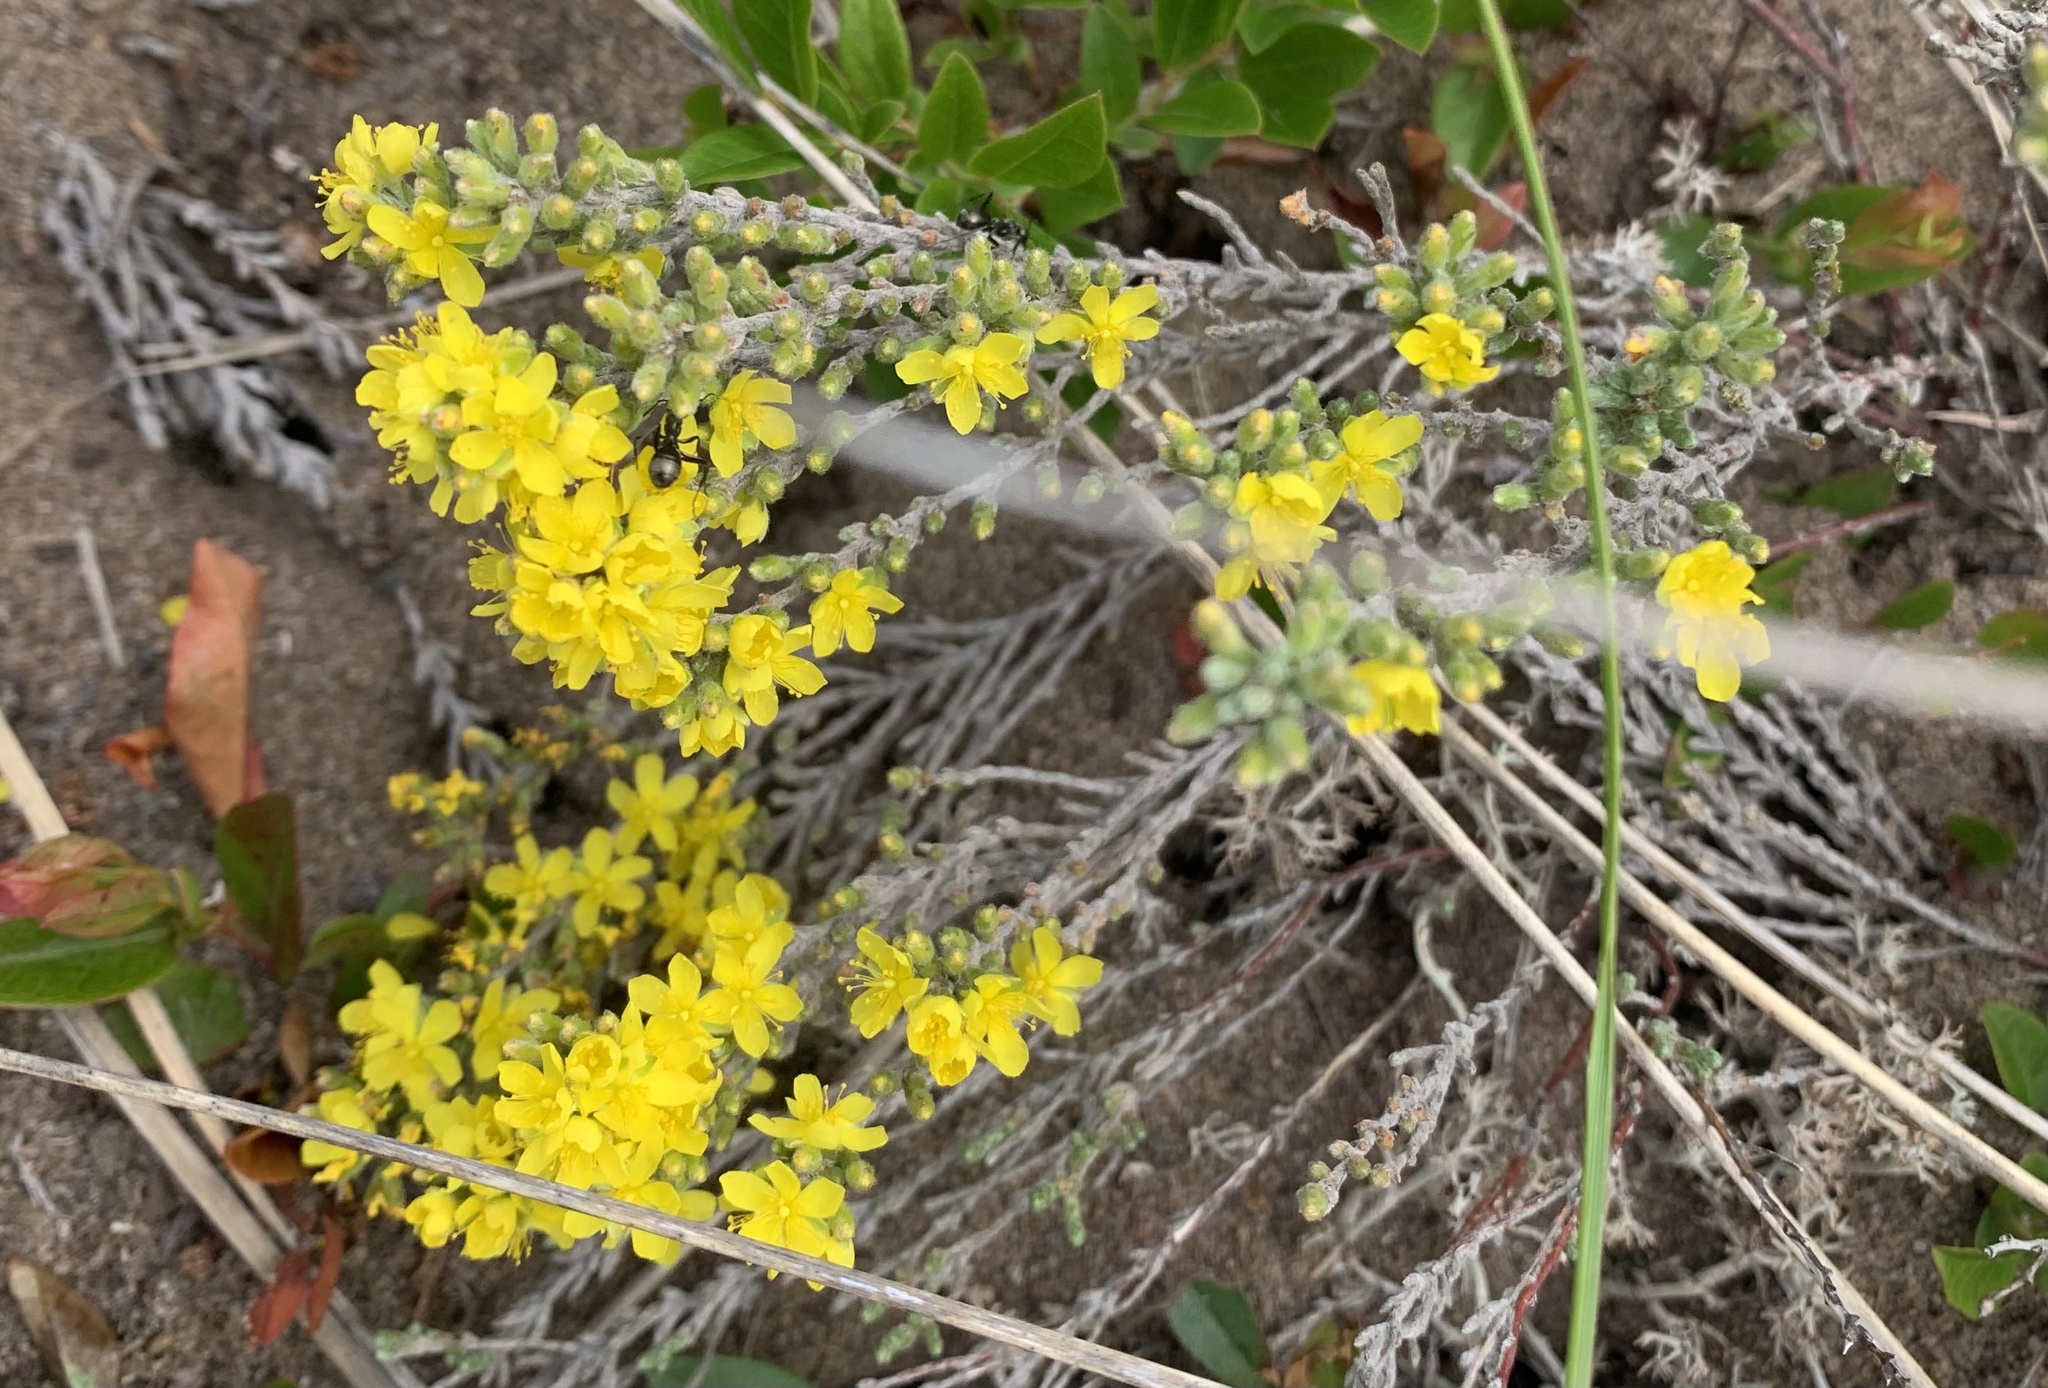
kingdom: Plantae
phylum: Tracheophyta
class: Magnoliopsida
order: Malvales
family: Cistaceae
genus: Hudsonia
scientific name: Hudsonia tomentosa
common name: Beach-heath
